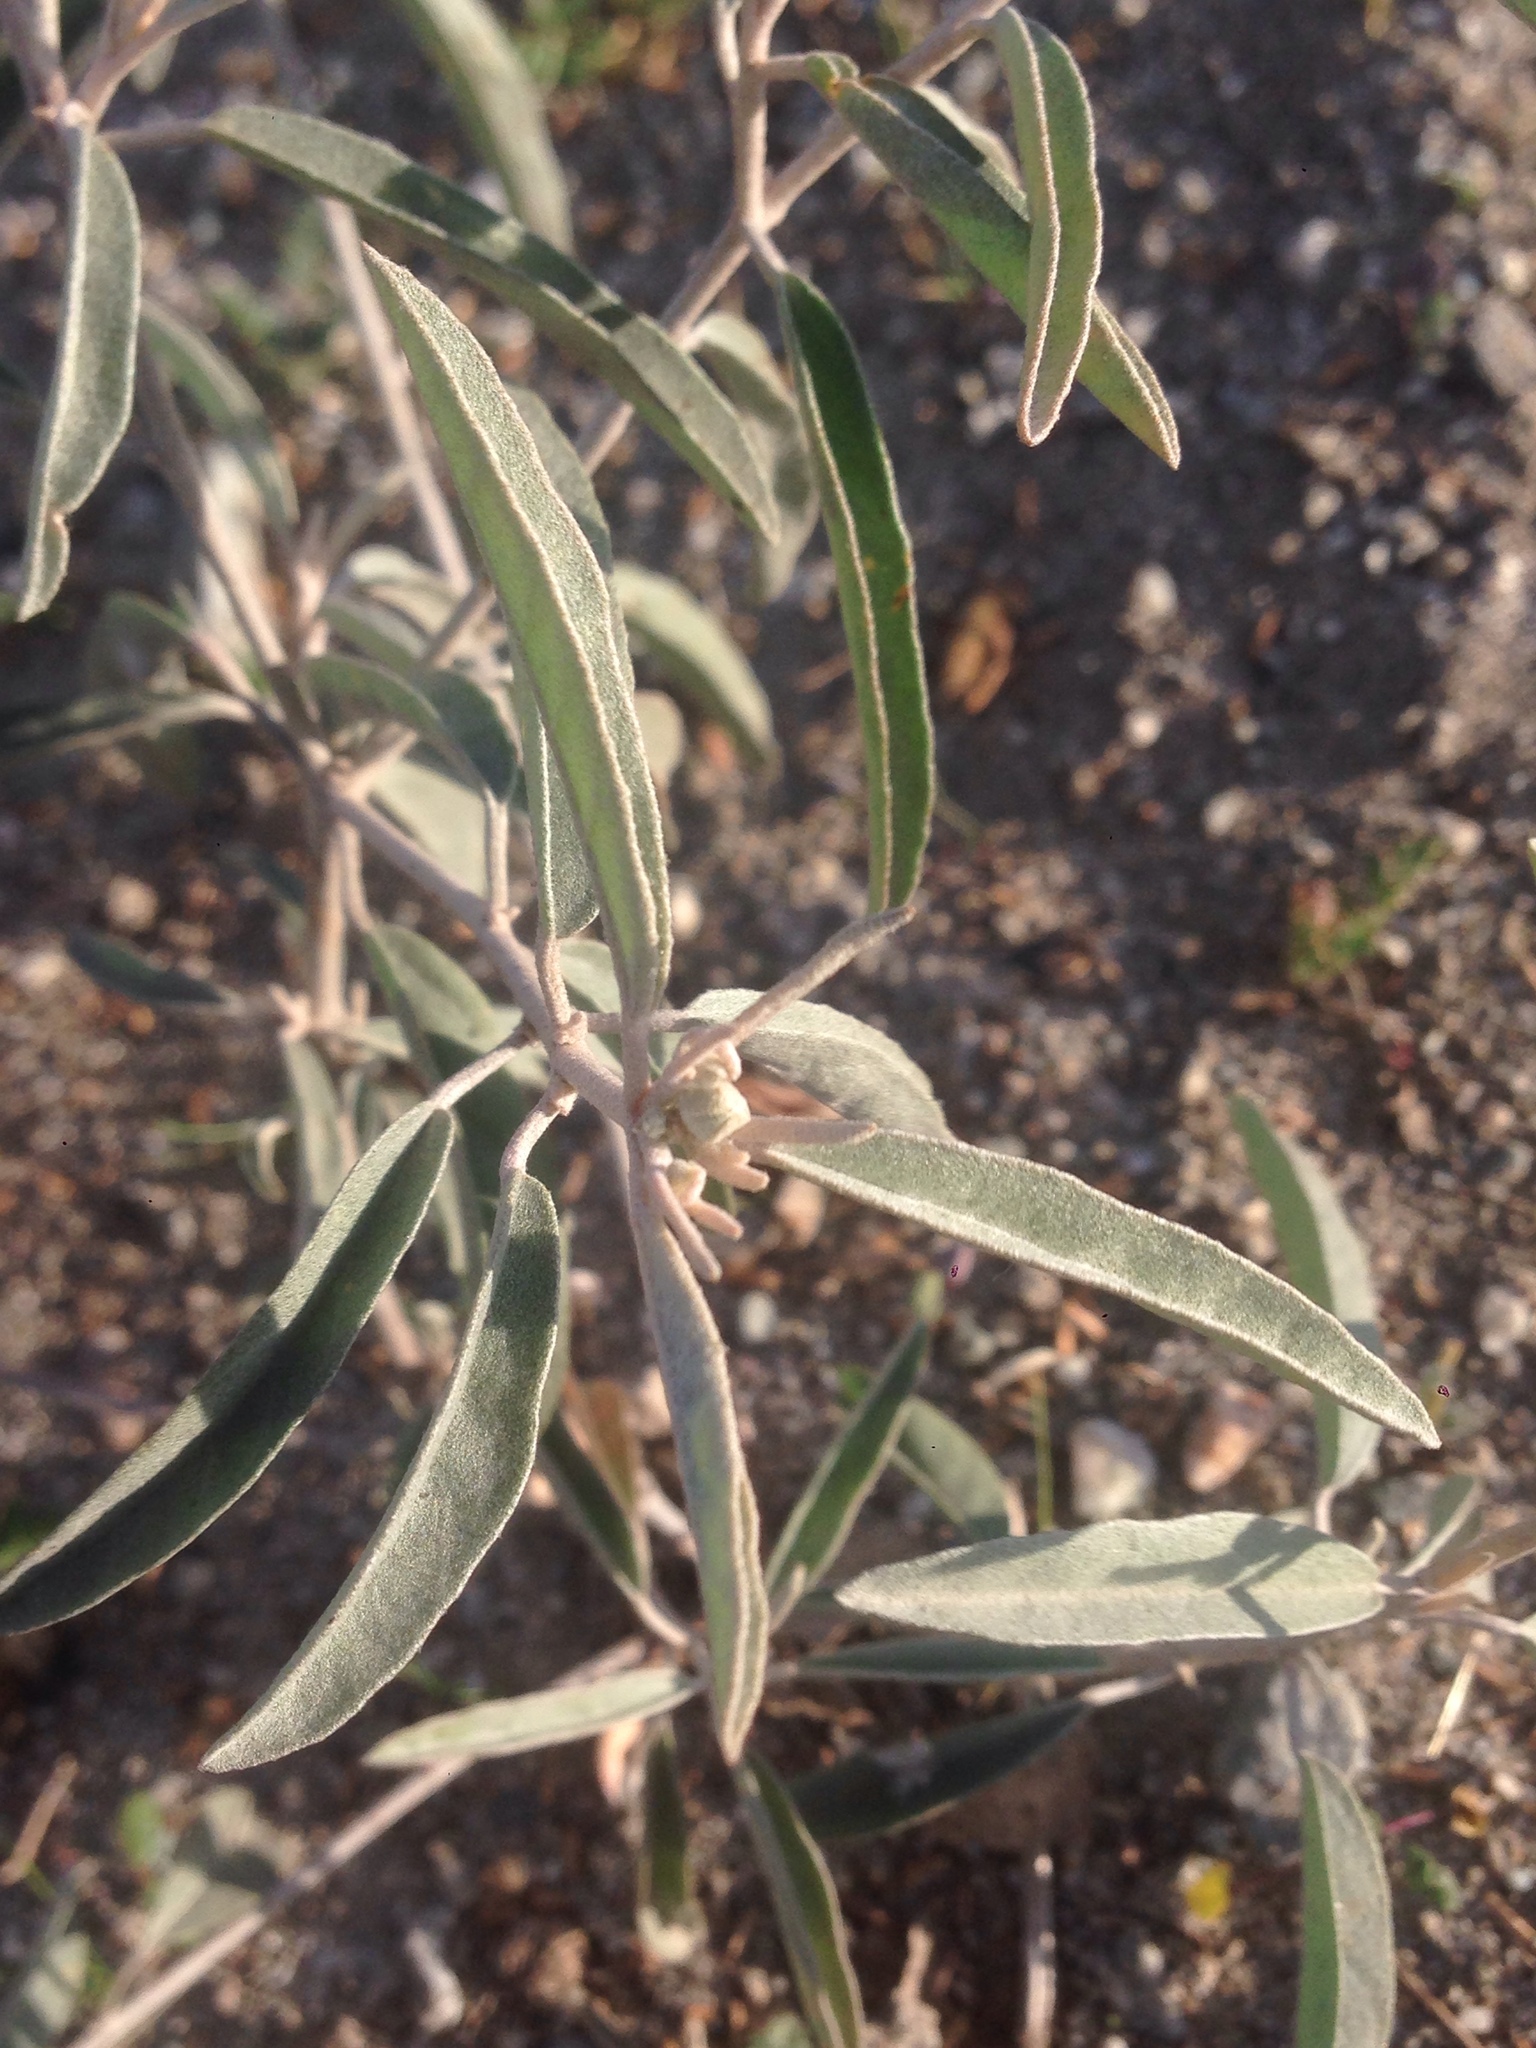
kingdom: Plantae
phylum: Tracheophyta
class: Magnoliopsida
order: Malpighiales
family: Euphorbiaceae
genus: Croton
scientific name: Croton californicus
